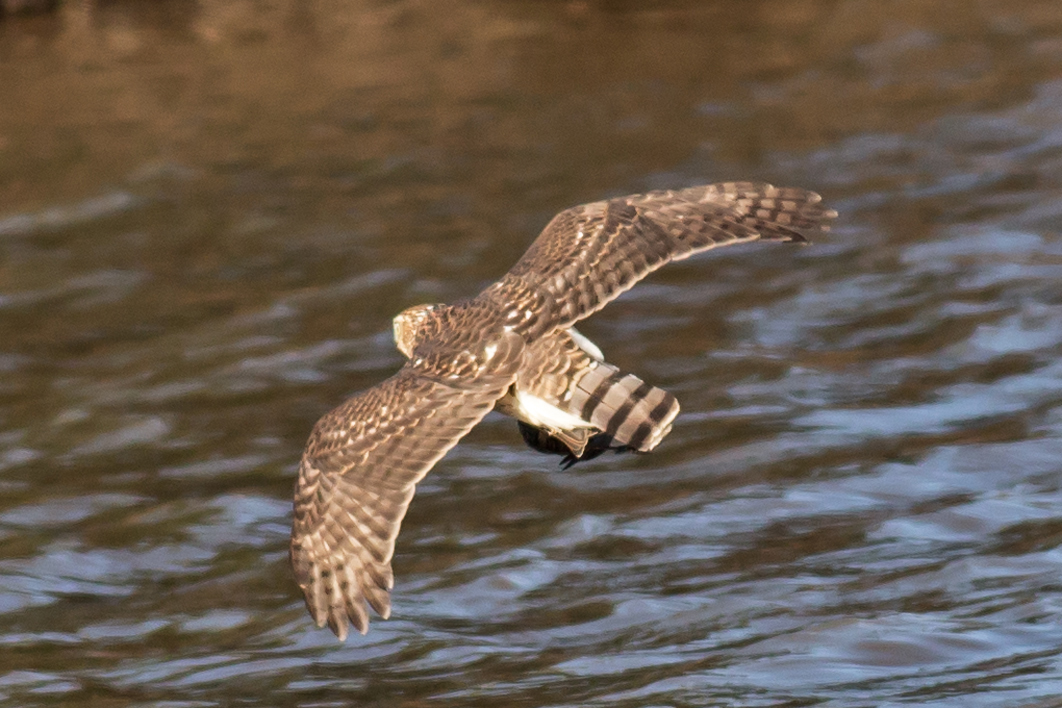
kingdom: Animalia
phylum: Chordata
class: Aves
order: Accipitriformes
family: Accipitridae
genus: Accipiter
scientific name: Accipiter cooperii
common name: Cooper's hawk
